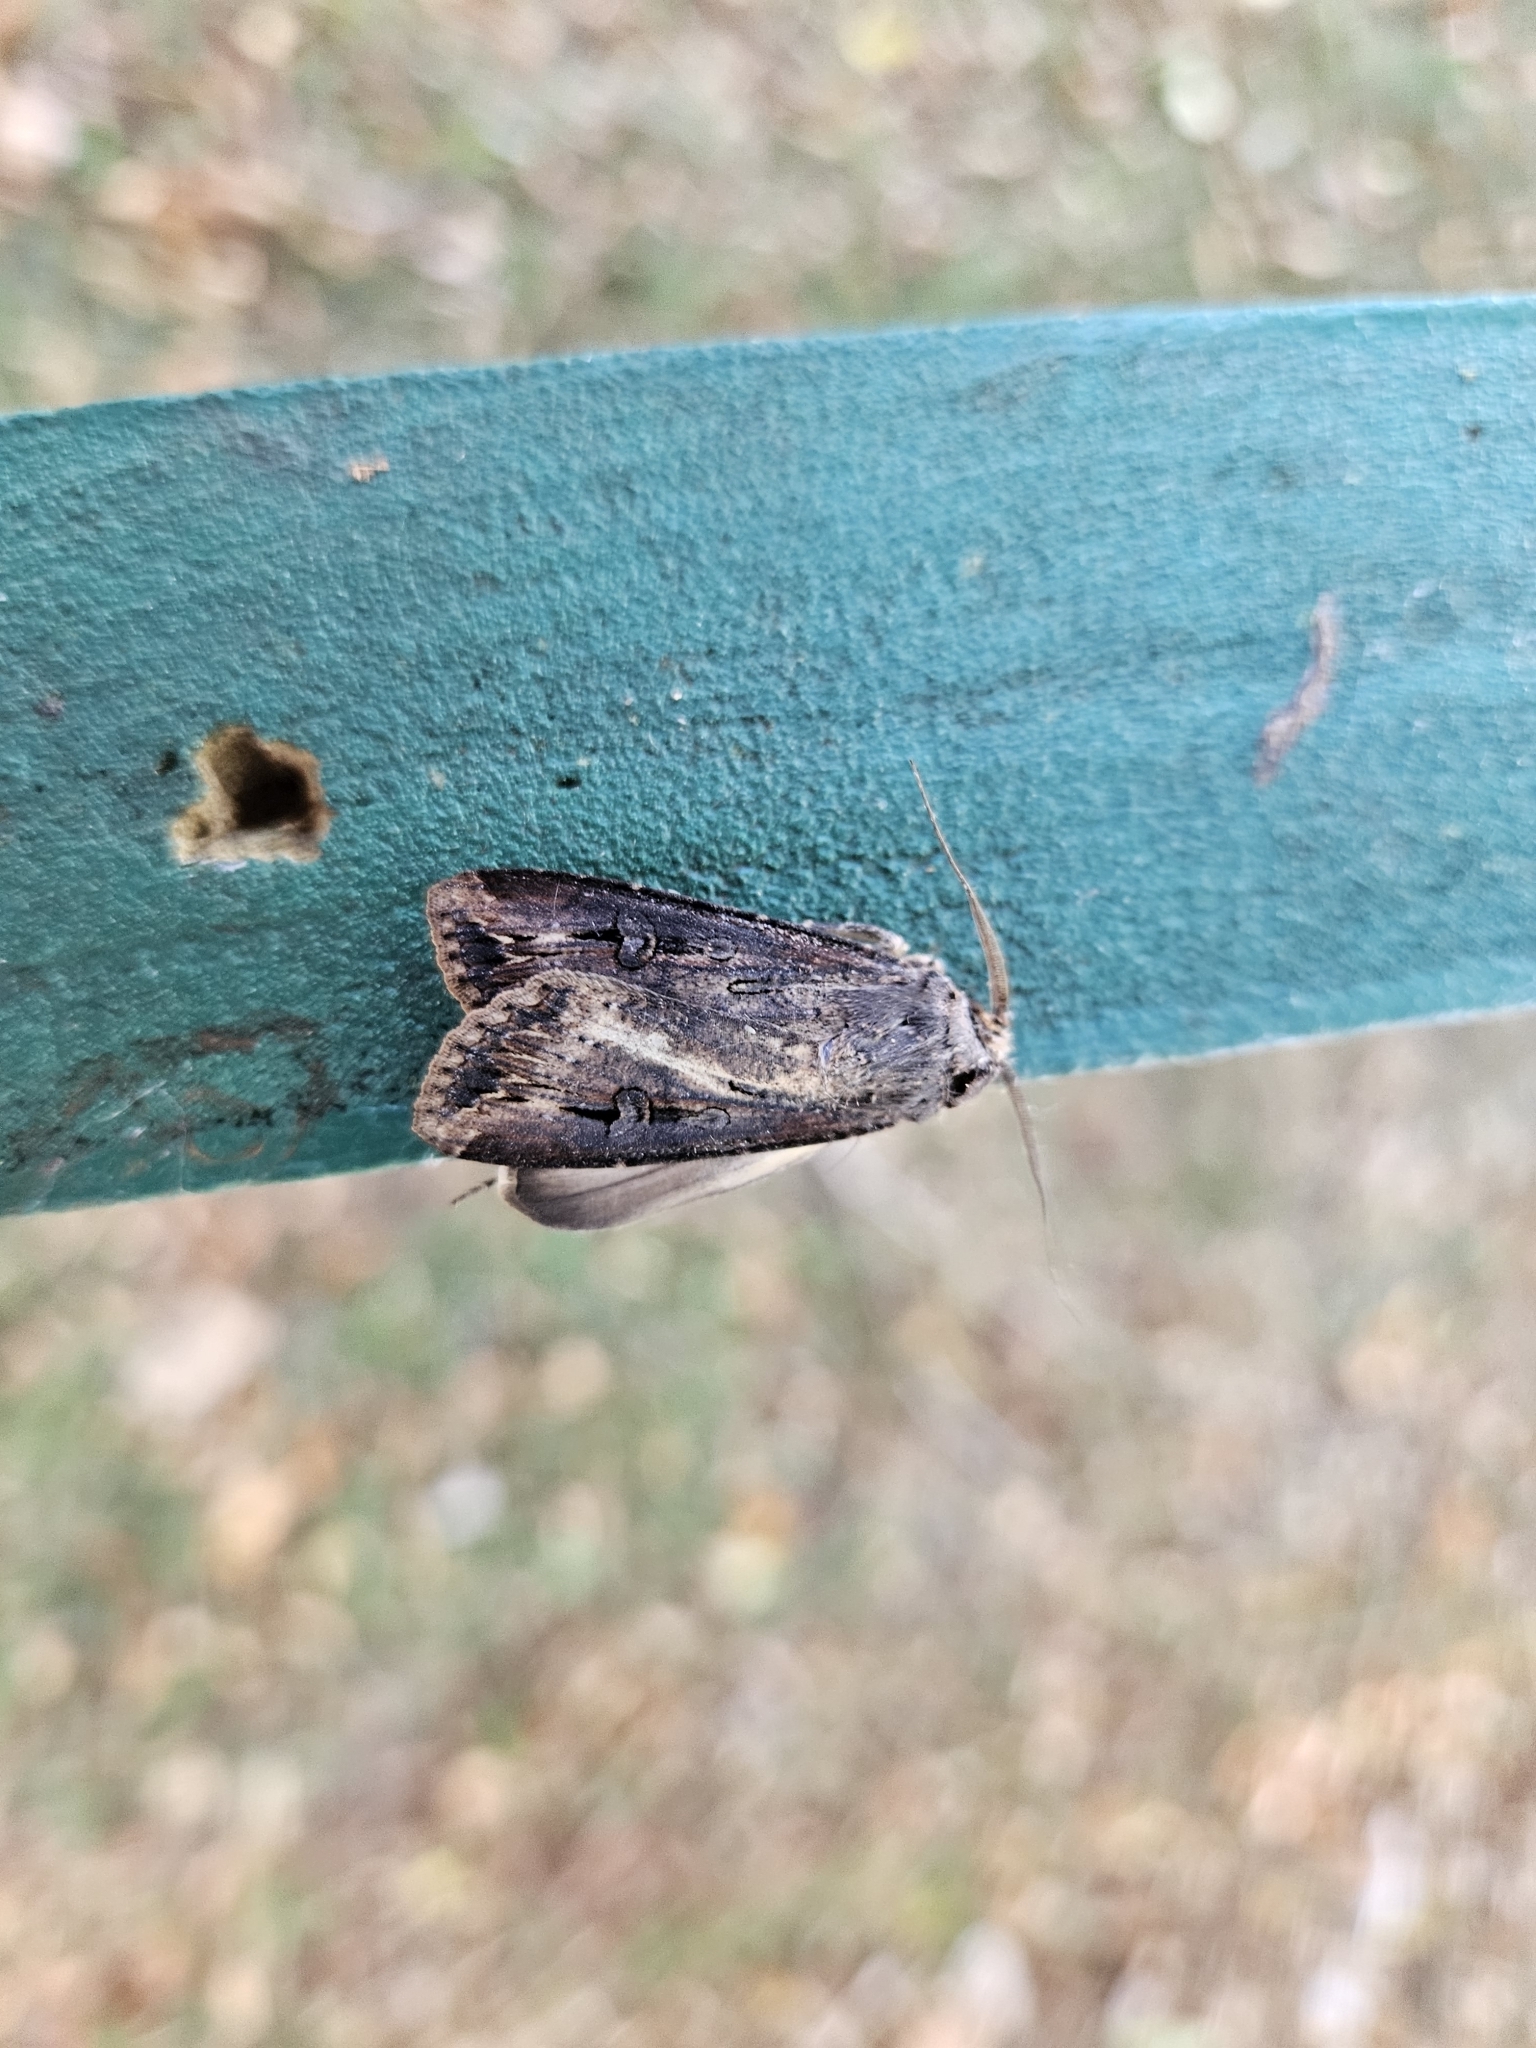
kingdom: Animalia
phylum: Arthropoda
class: Insecta
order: Lepidoptera
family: Noctuidae
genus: Agrotis
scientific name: Agrotis ipsilon
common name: Dark sword-grass
